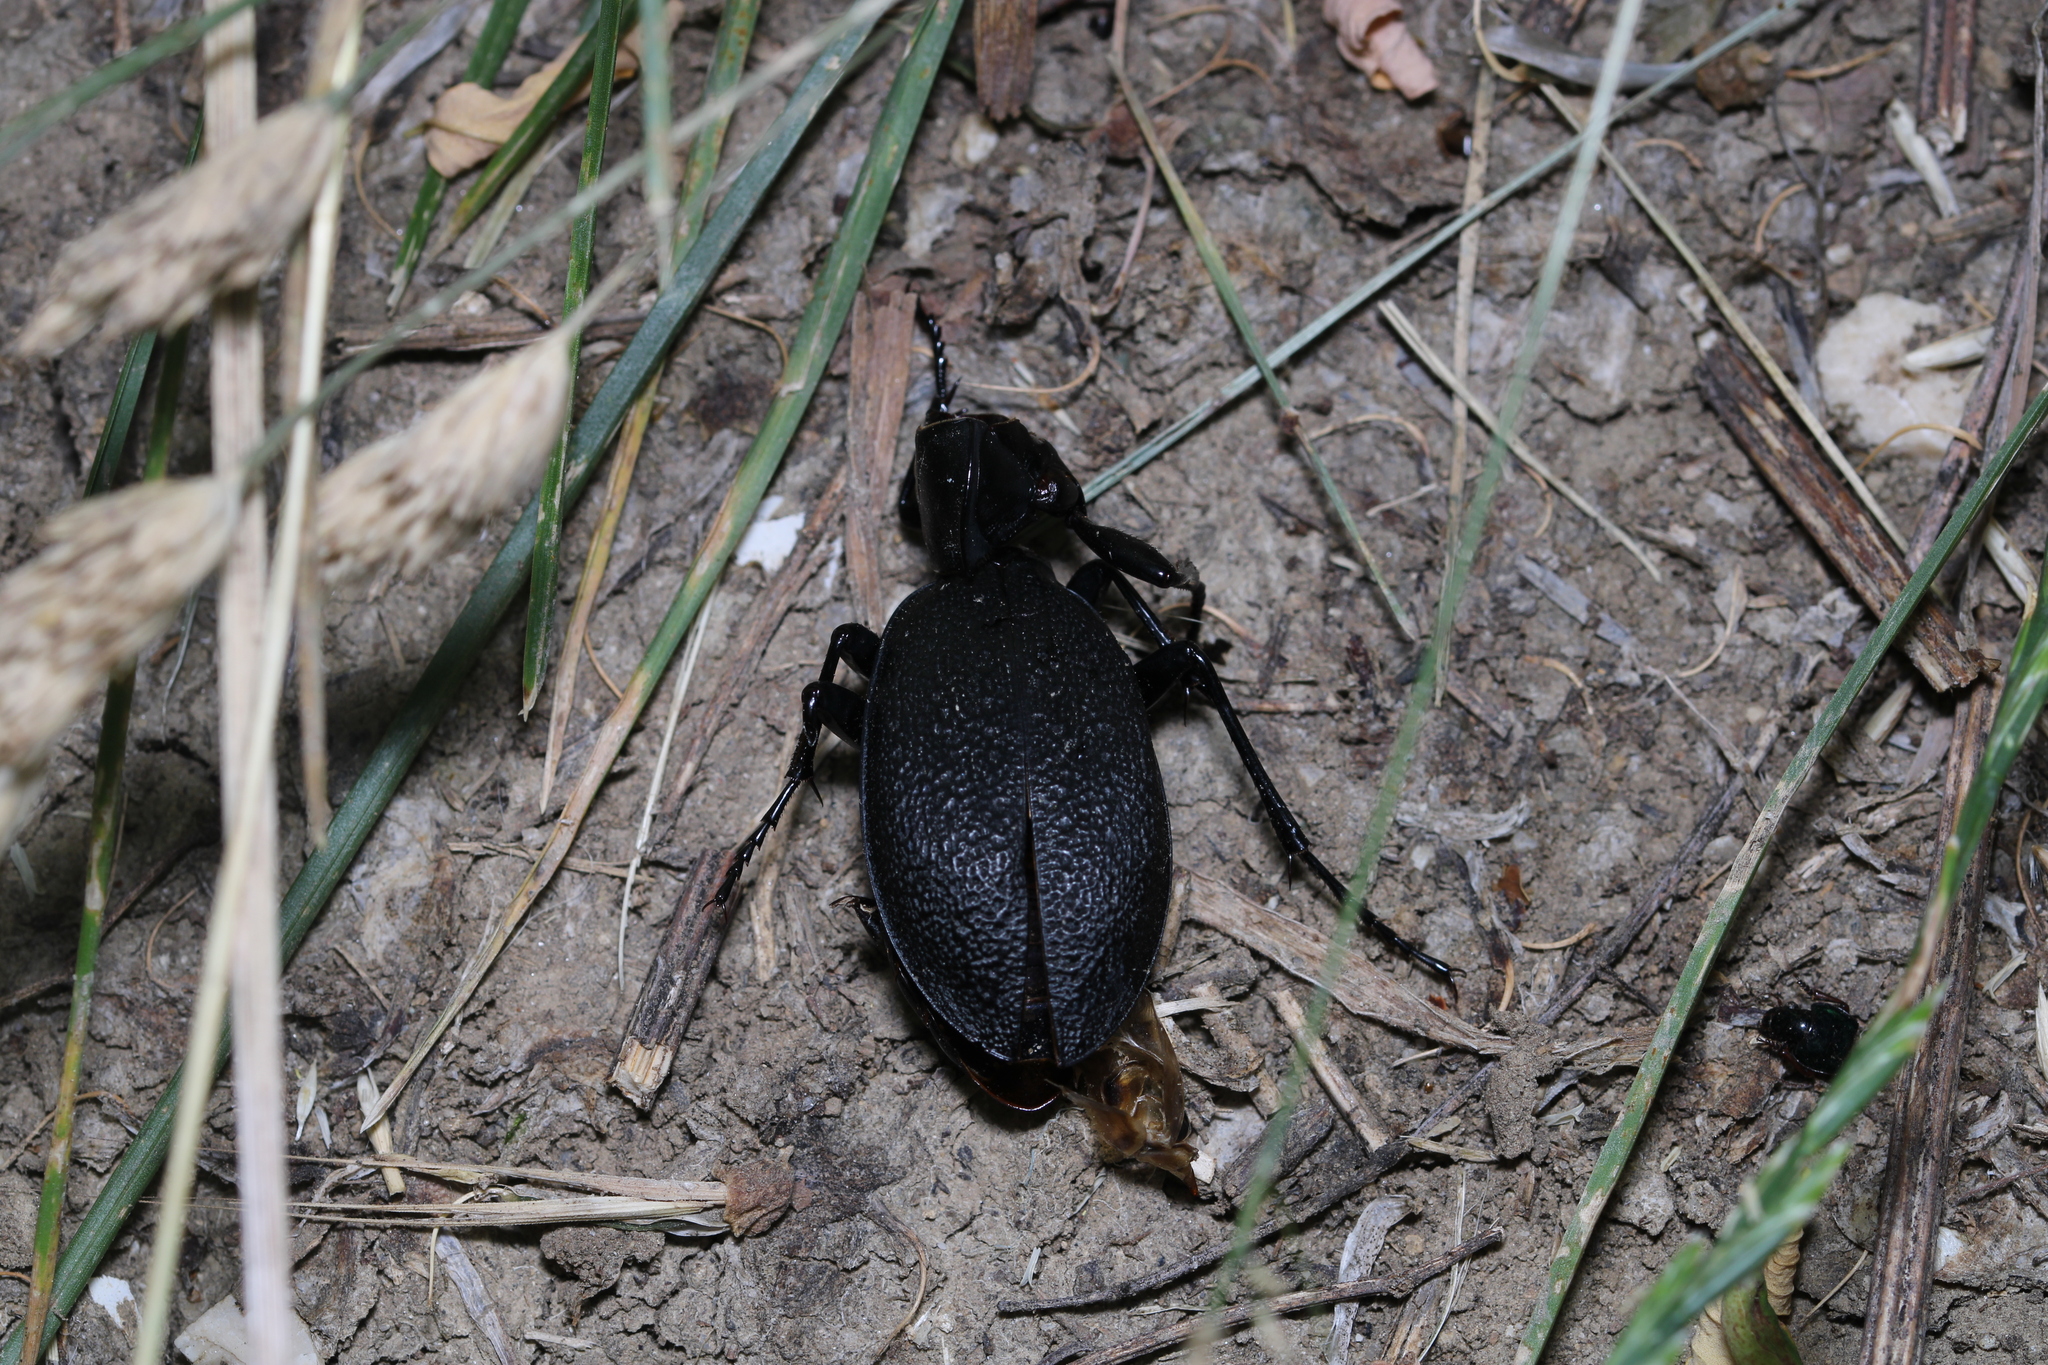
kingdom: Animalia
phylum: Arthropoda
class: Insecta
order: Coleoptera
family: Carabidae
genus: Carabus
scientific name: Carabus coriaceus
